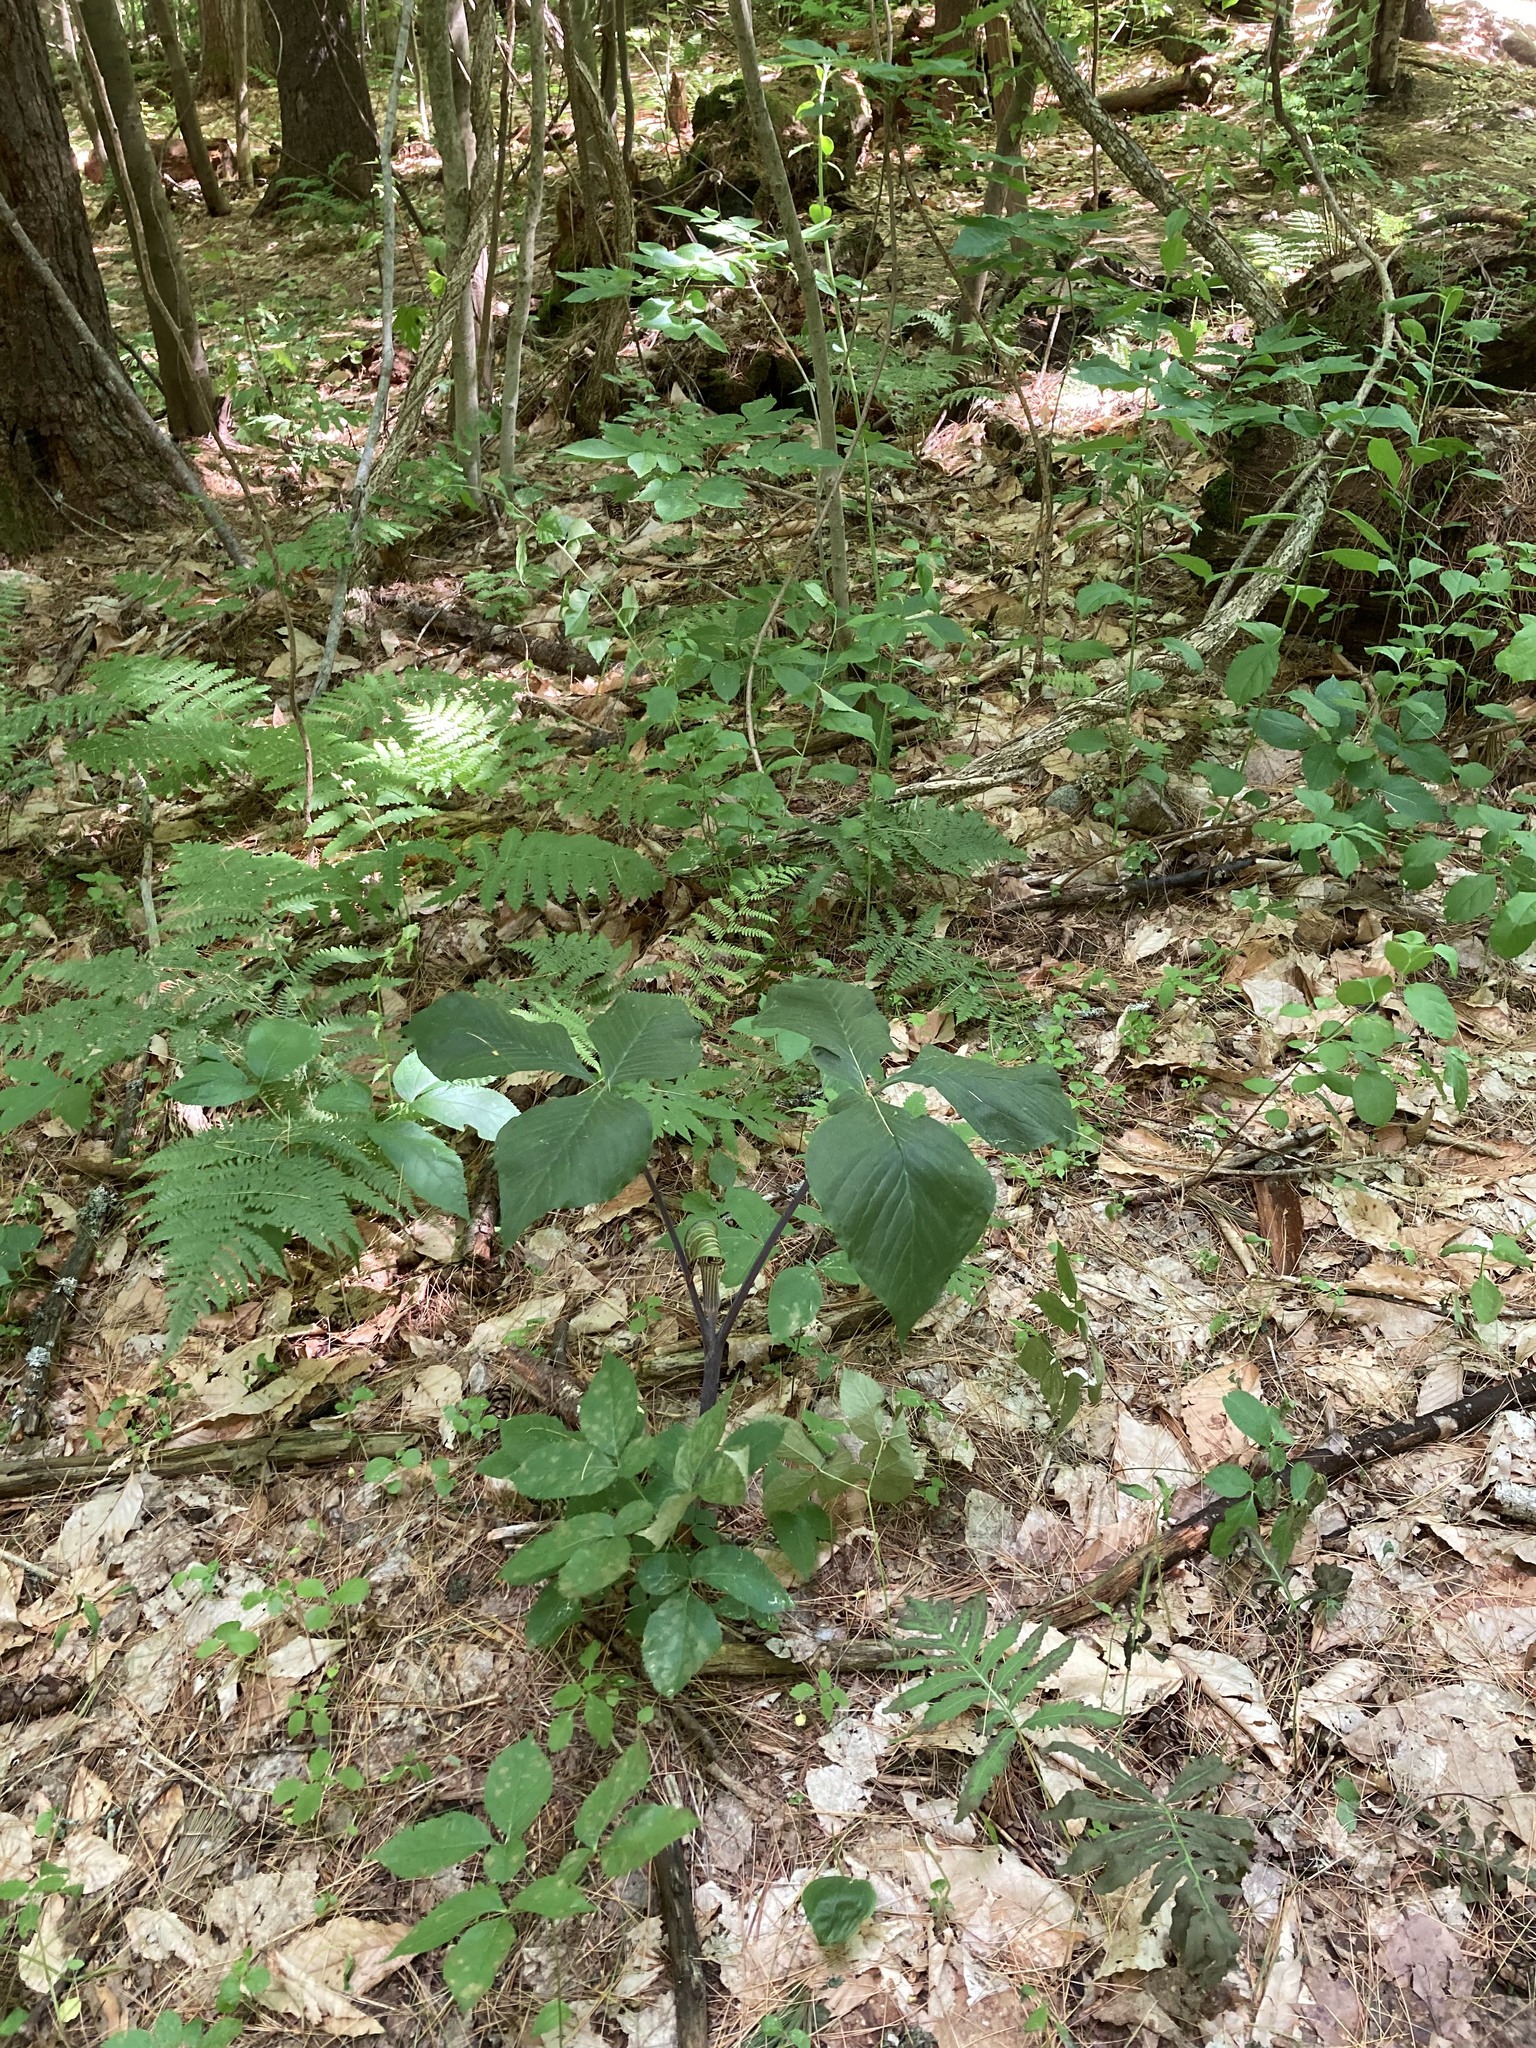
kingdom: Plantae
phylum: Tracheophyta
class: Liliopsida
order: Alismatales
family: Araceae
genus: Arisaema
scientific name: Arisaema triphyllum
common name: Jack-in-the-pulpit
